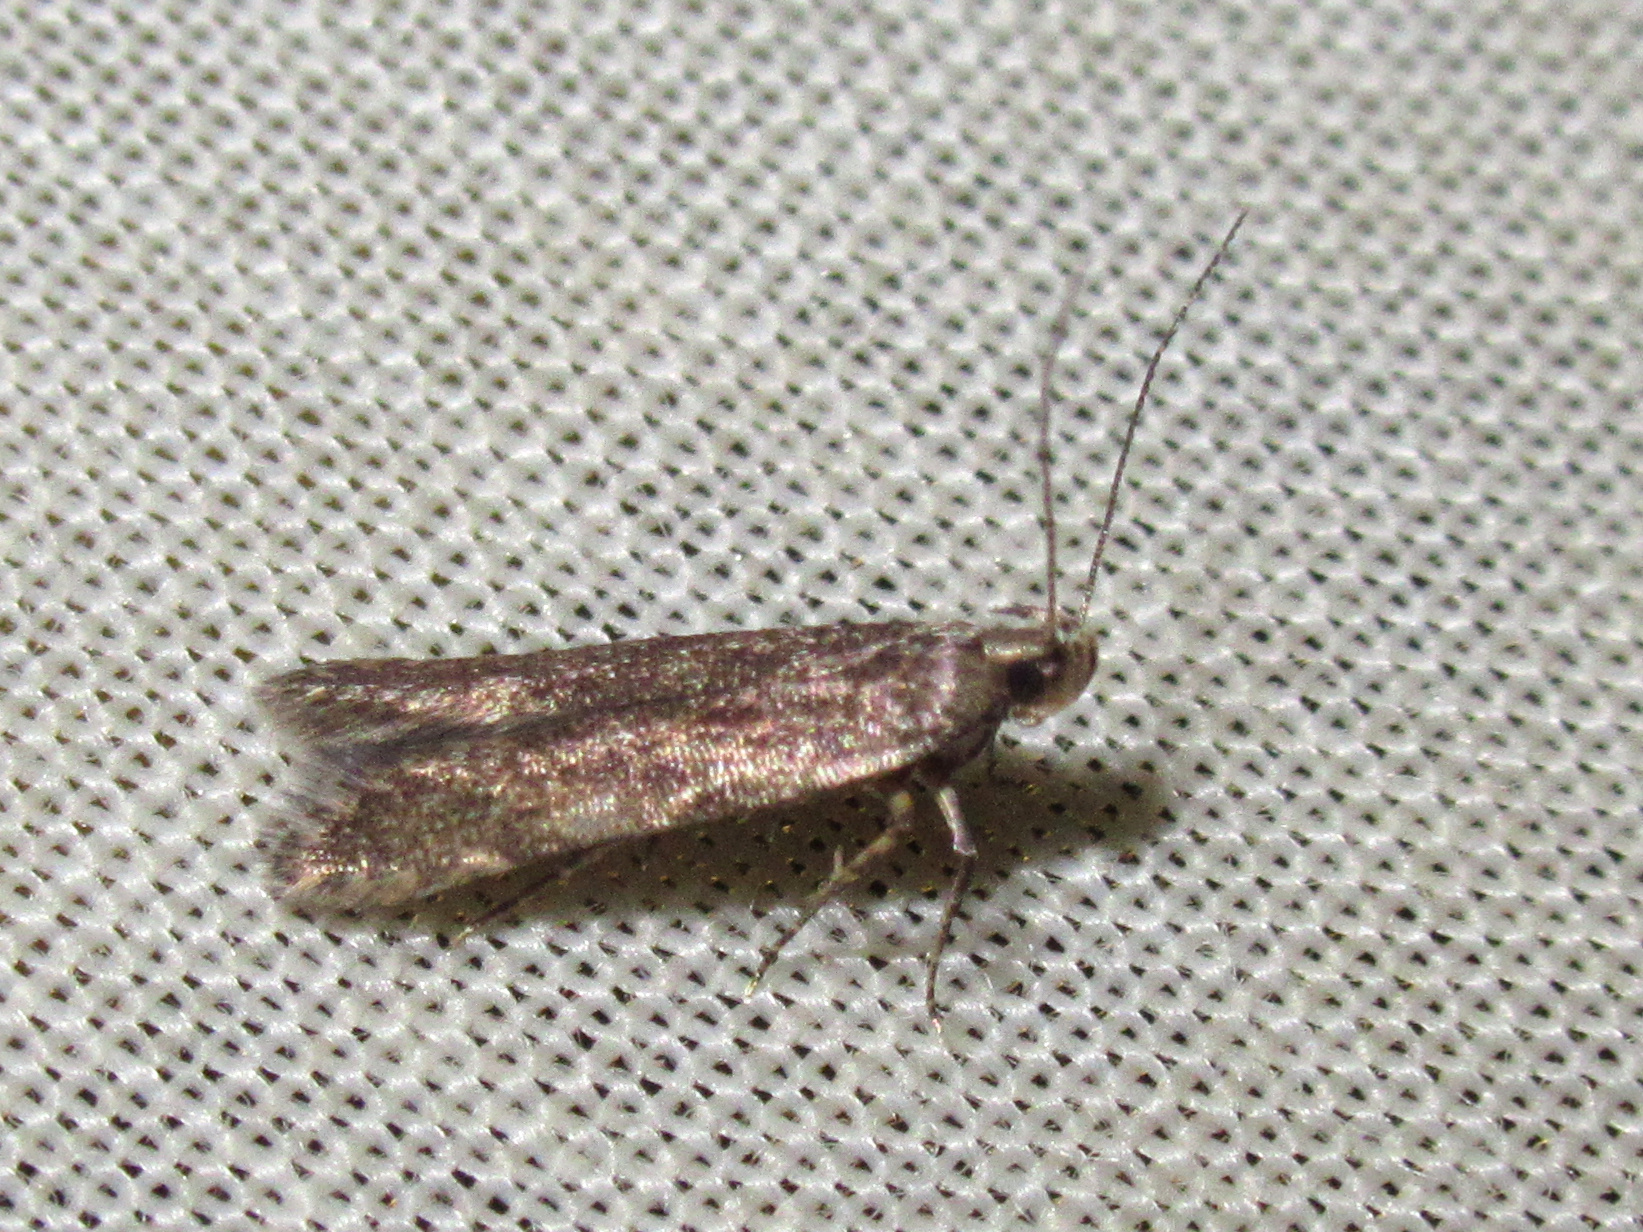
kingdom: Animalia
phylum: Arthropoda
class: Insecta
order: Lepidoptera
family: Gelechiidae
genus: Monochroa
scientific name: Monochroa
